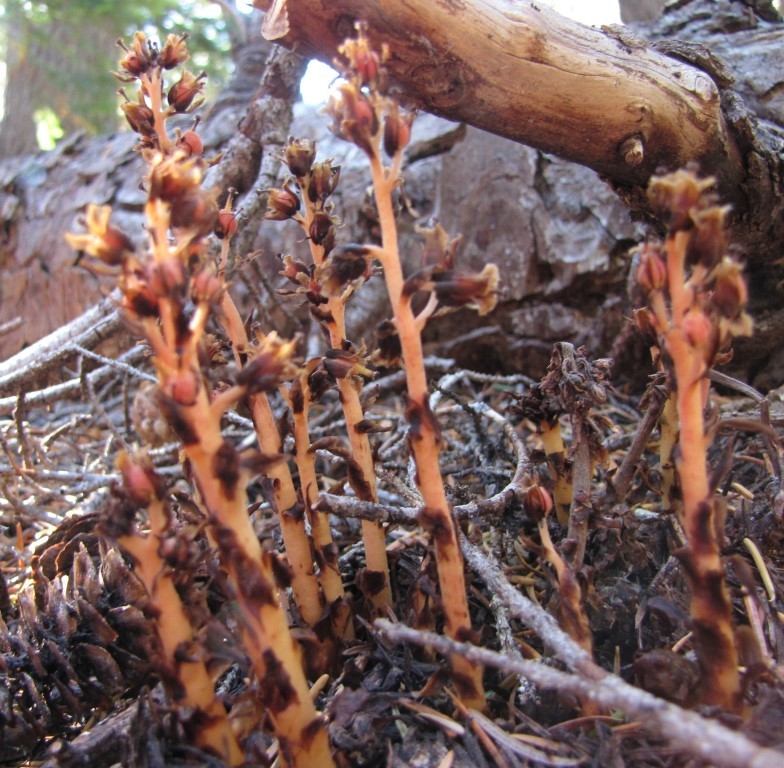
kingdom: Plantae
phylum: Tracheophyta
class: Magnoliopsida
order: Ericales
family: Ericaceae
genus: Hypopitys
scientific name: Hypopitys monotropa
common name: Yellow bird's-nest
